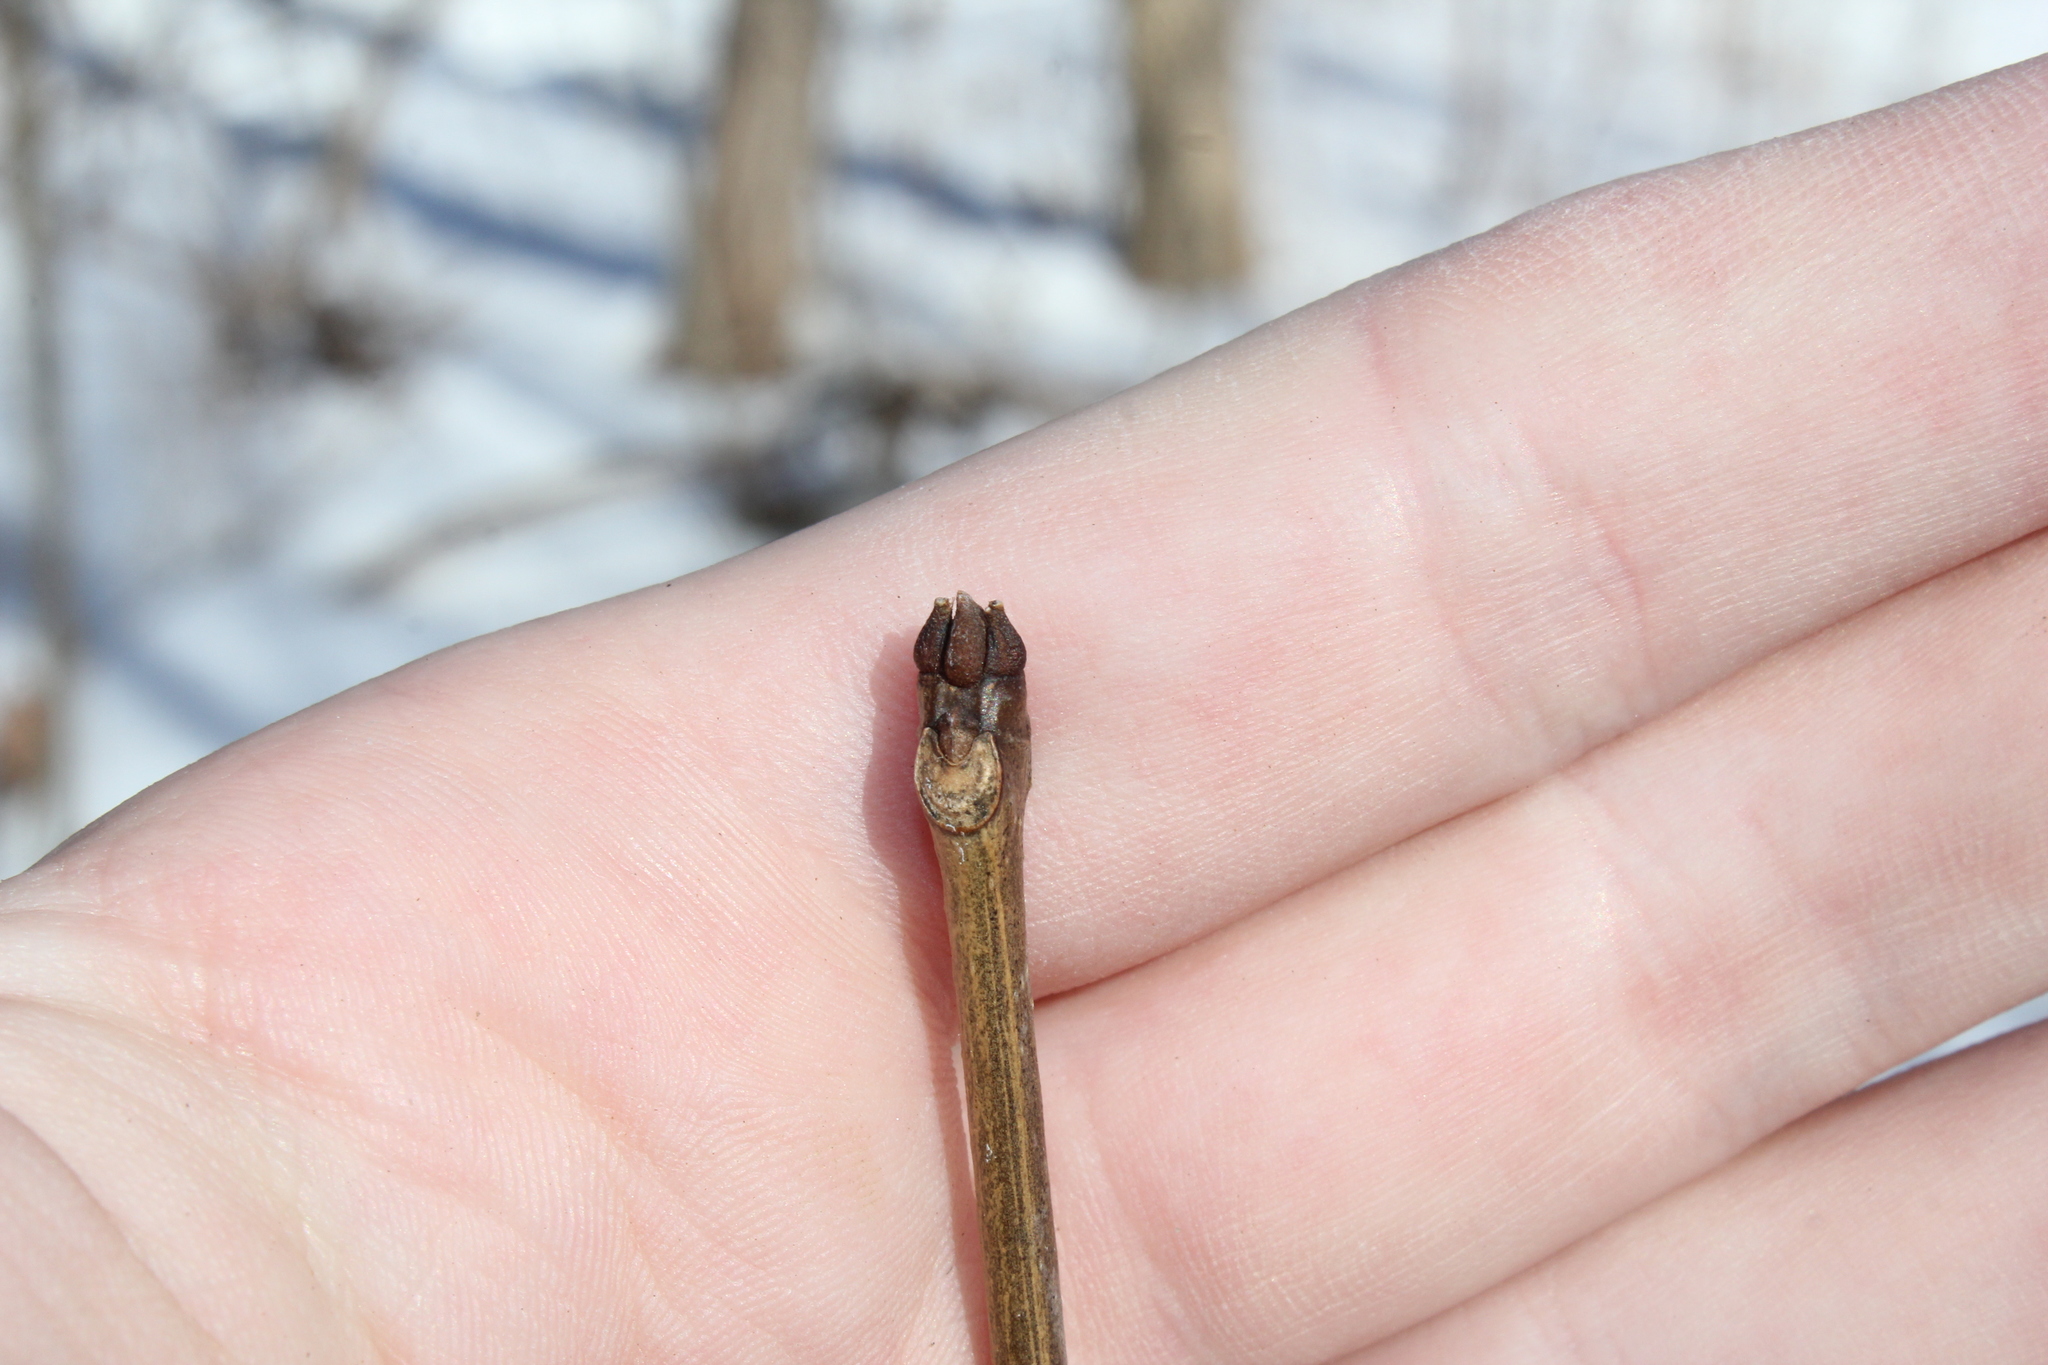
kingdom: Plantae
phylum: Tracheophyta
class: Magnoliopsida
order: Lamiales
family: Oleaceae
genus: Fraxinus
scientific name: Fraxinus americana
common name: White ash
